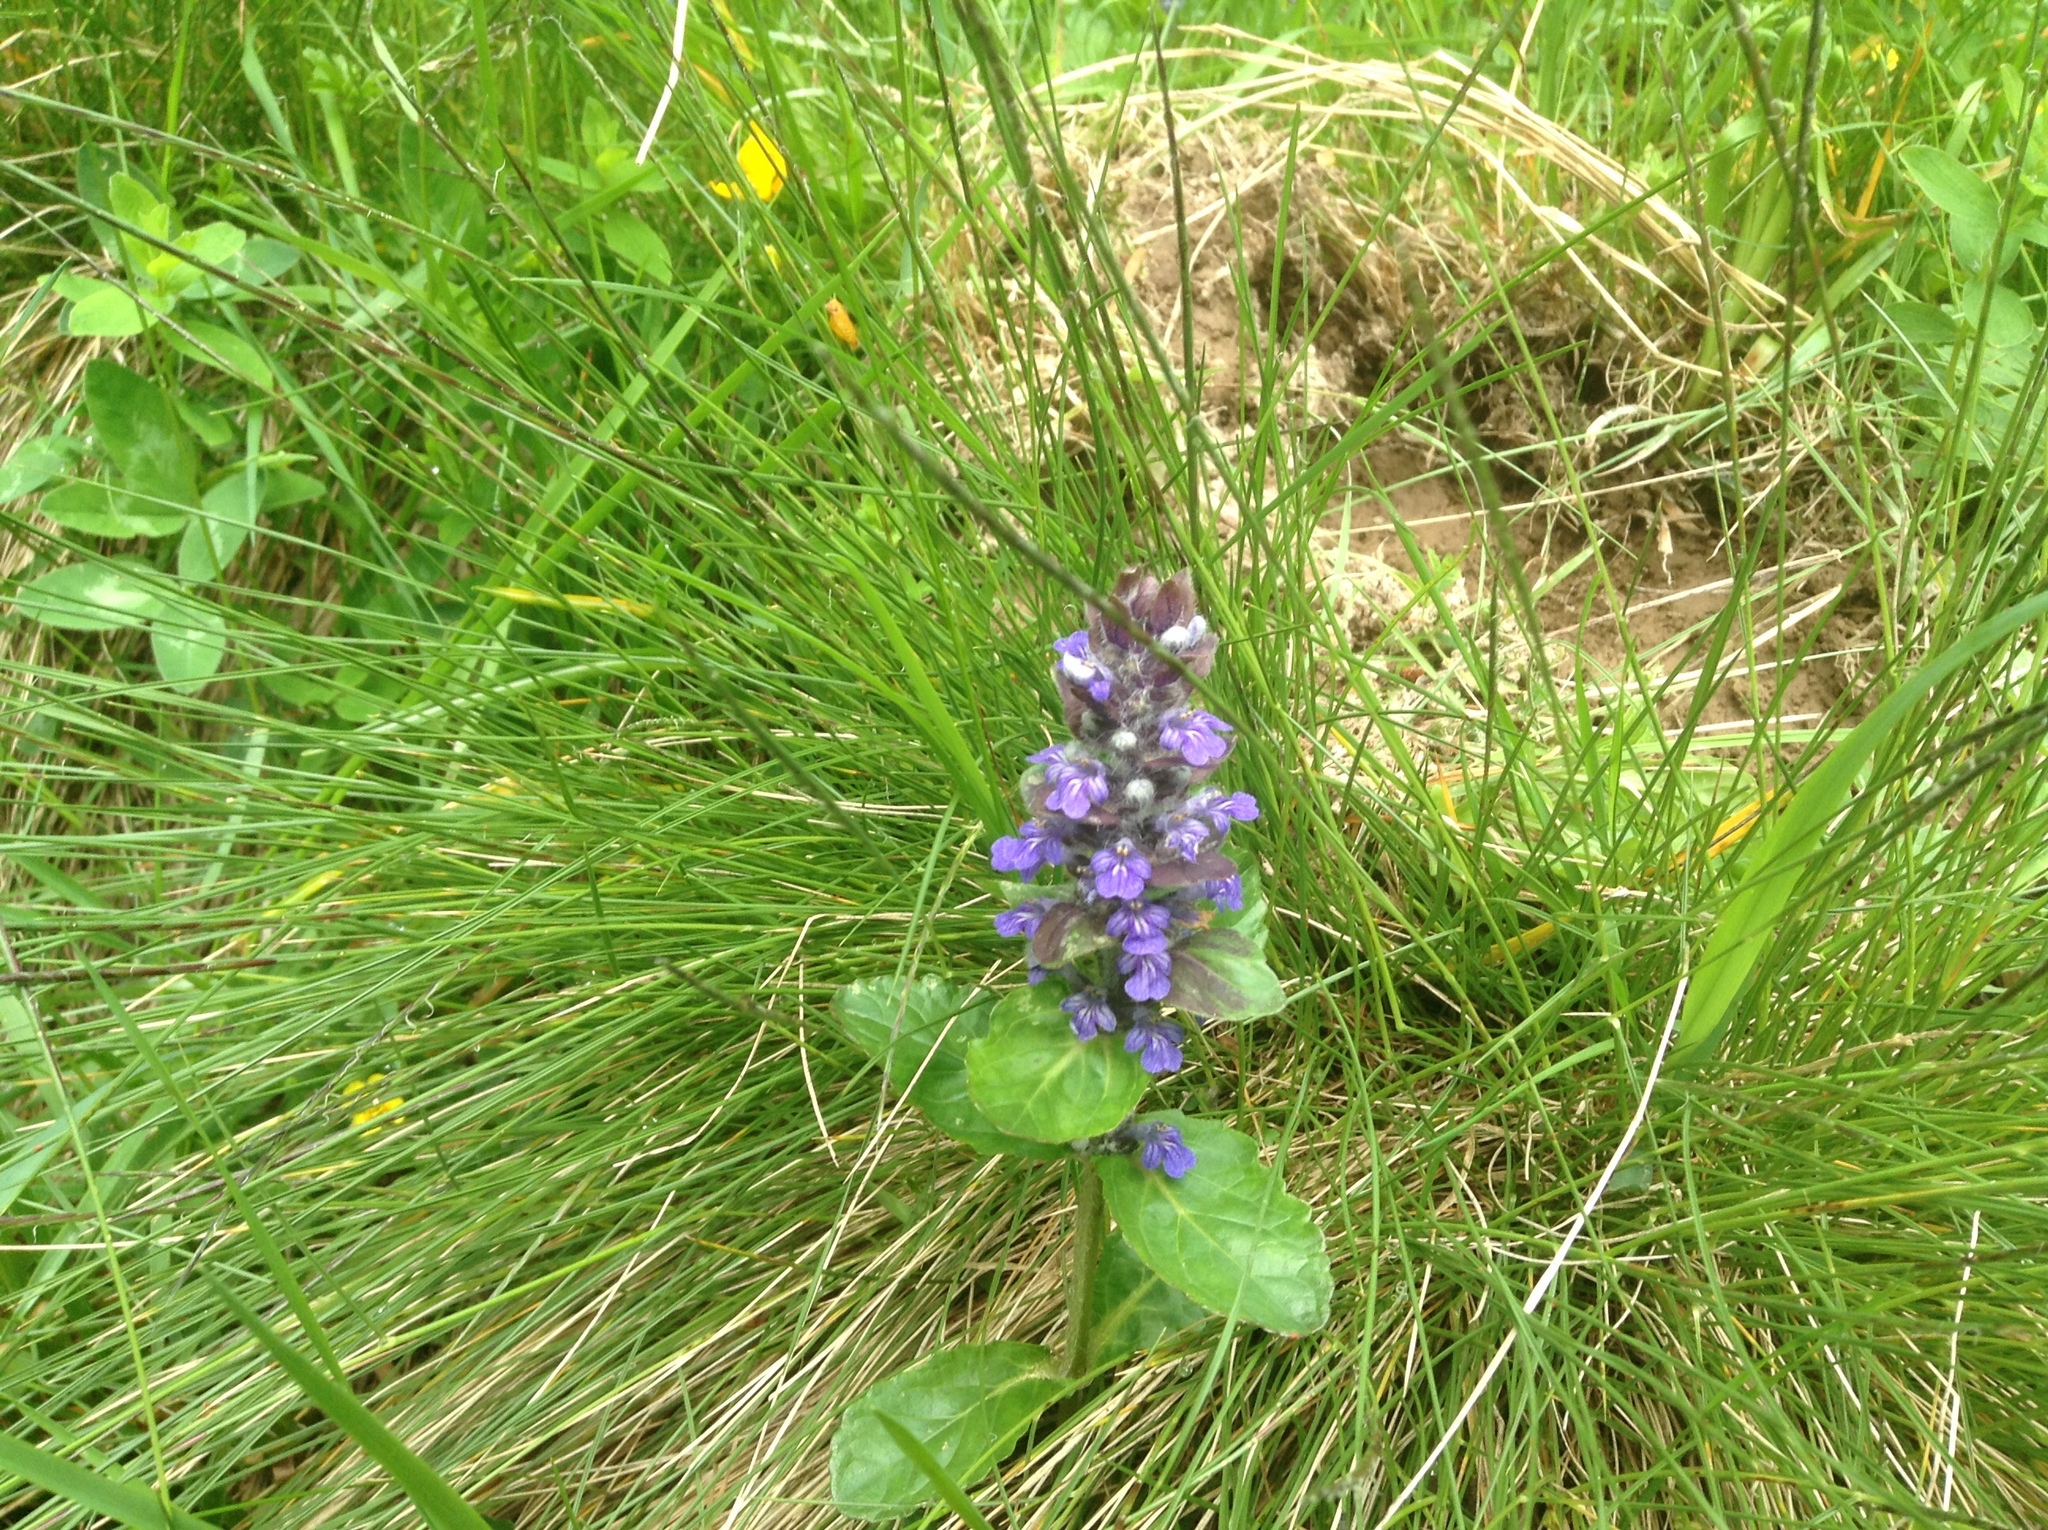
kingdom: Plantae
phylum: Tracheophyta
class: Magnoliopsida
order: Lamiales
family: Lamiaceae
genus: Ajuga
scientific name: Ajuga pyramidalis
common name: Pyramid bugle
